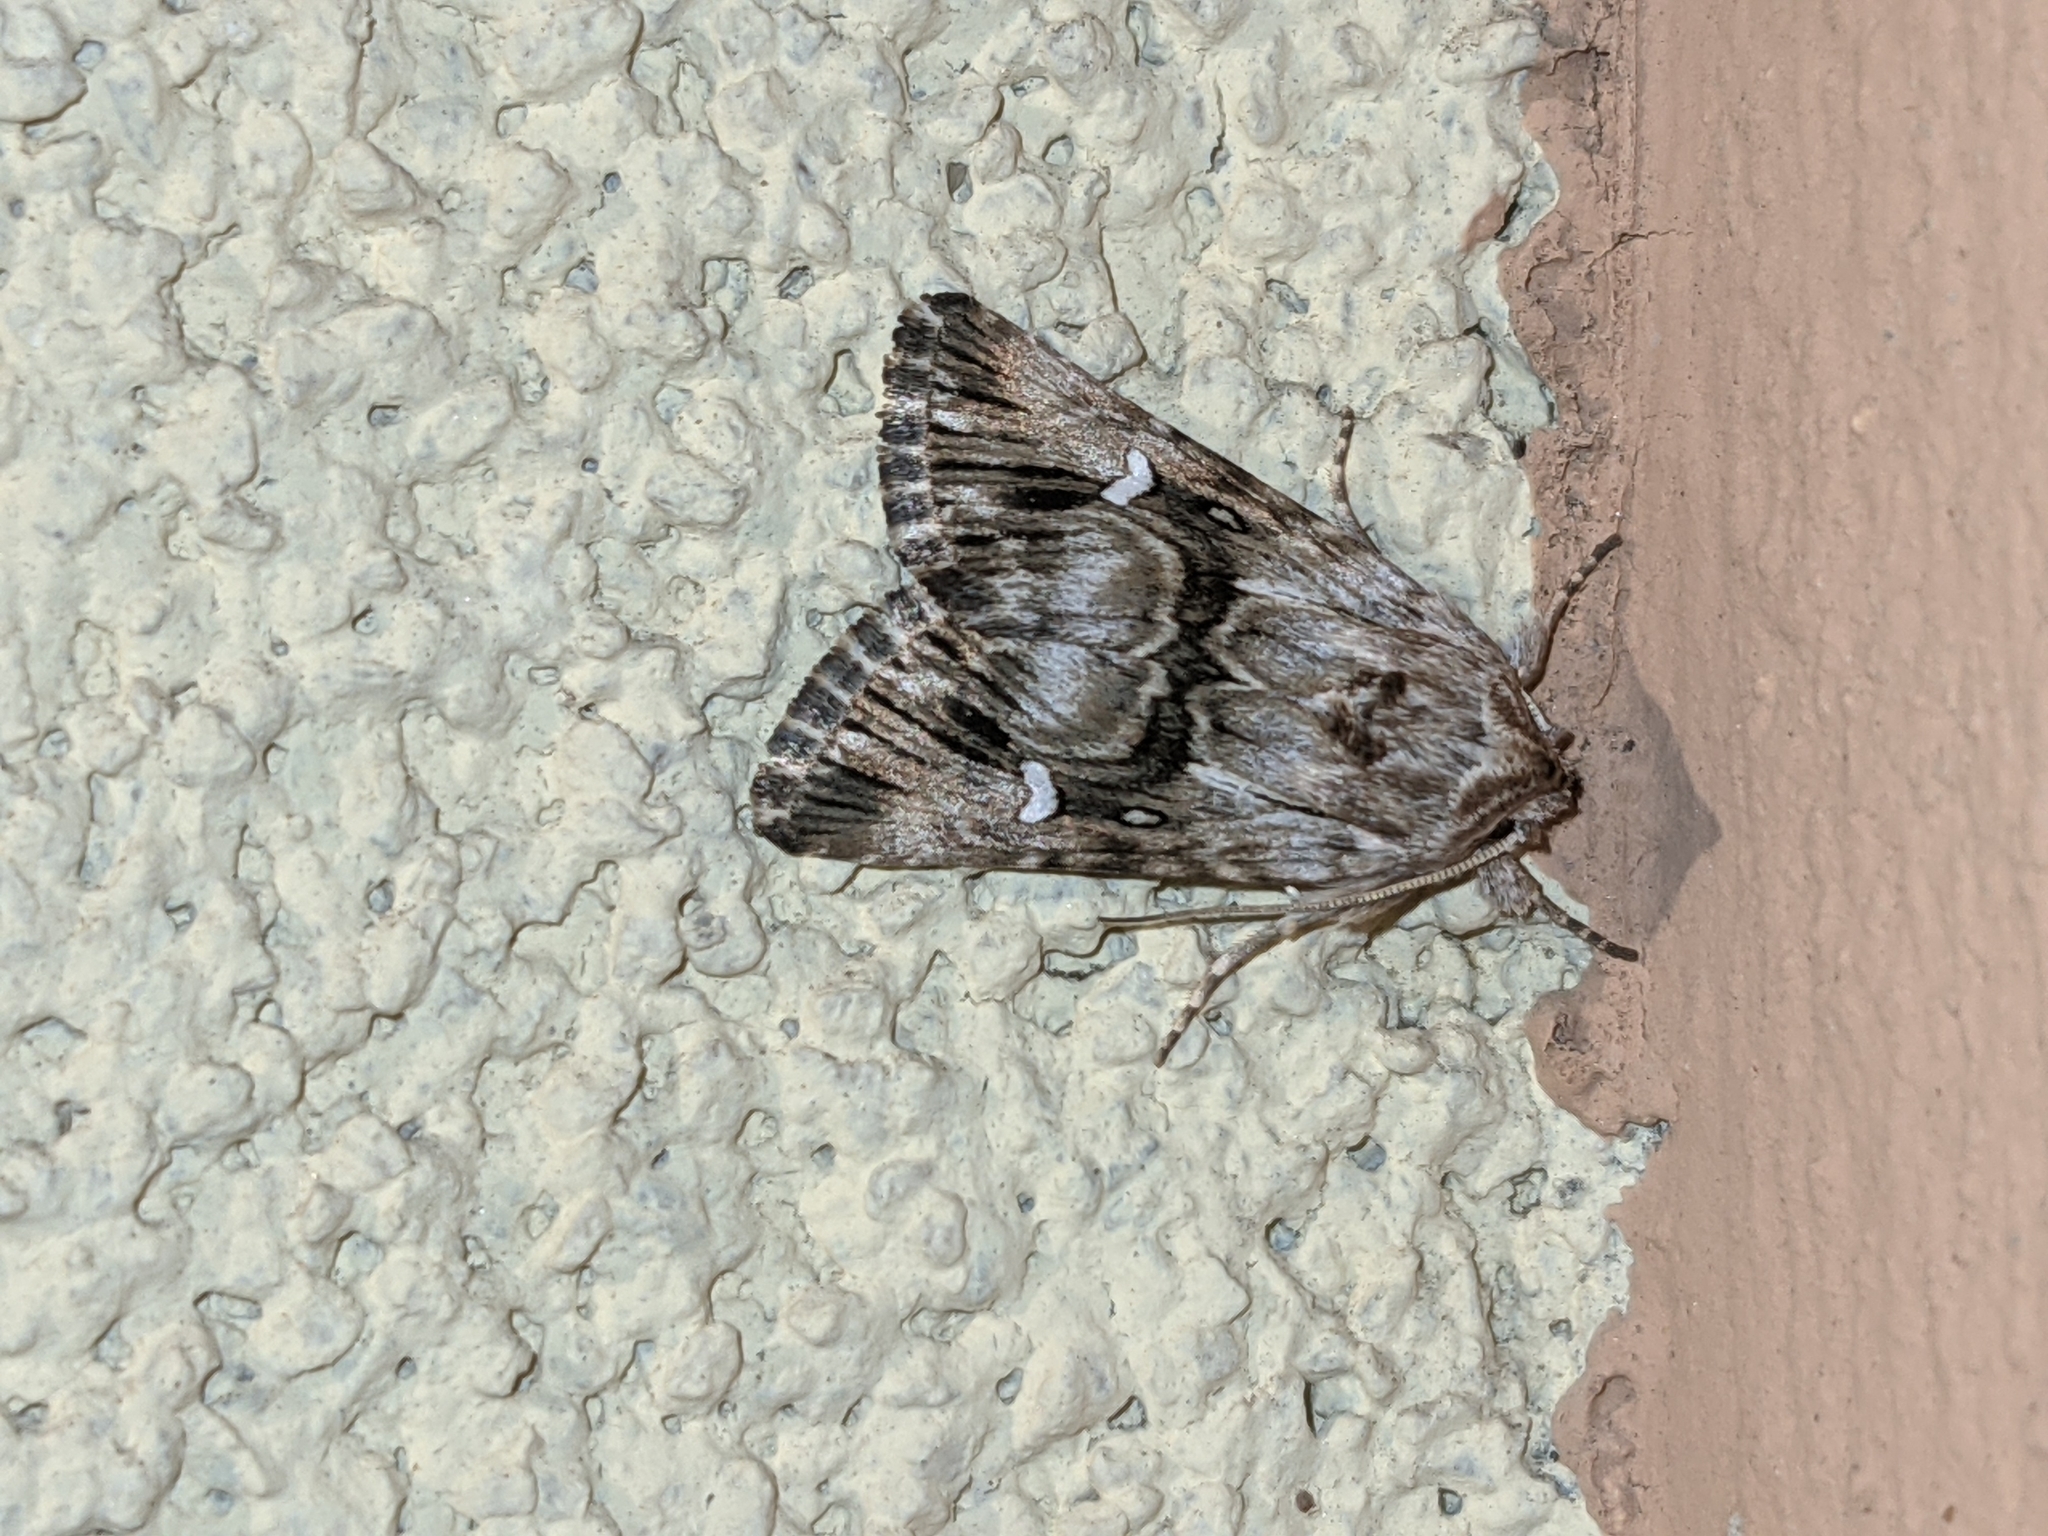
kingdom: Animalia
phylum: Arthropoda
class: Insecta
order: Lepidoptera
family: Noctuidae
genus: Calophasia
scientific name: Calophasia lunula
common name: Toadflax brocade
